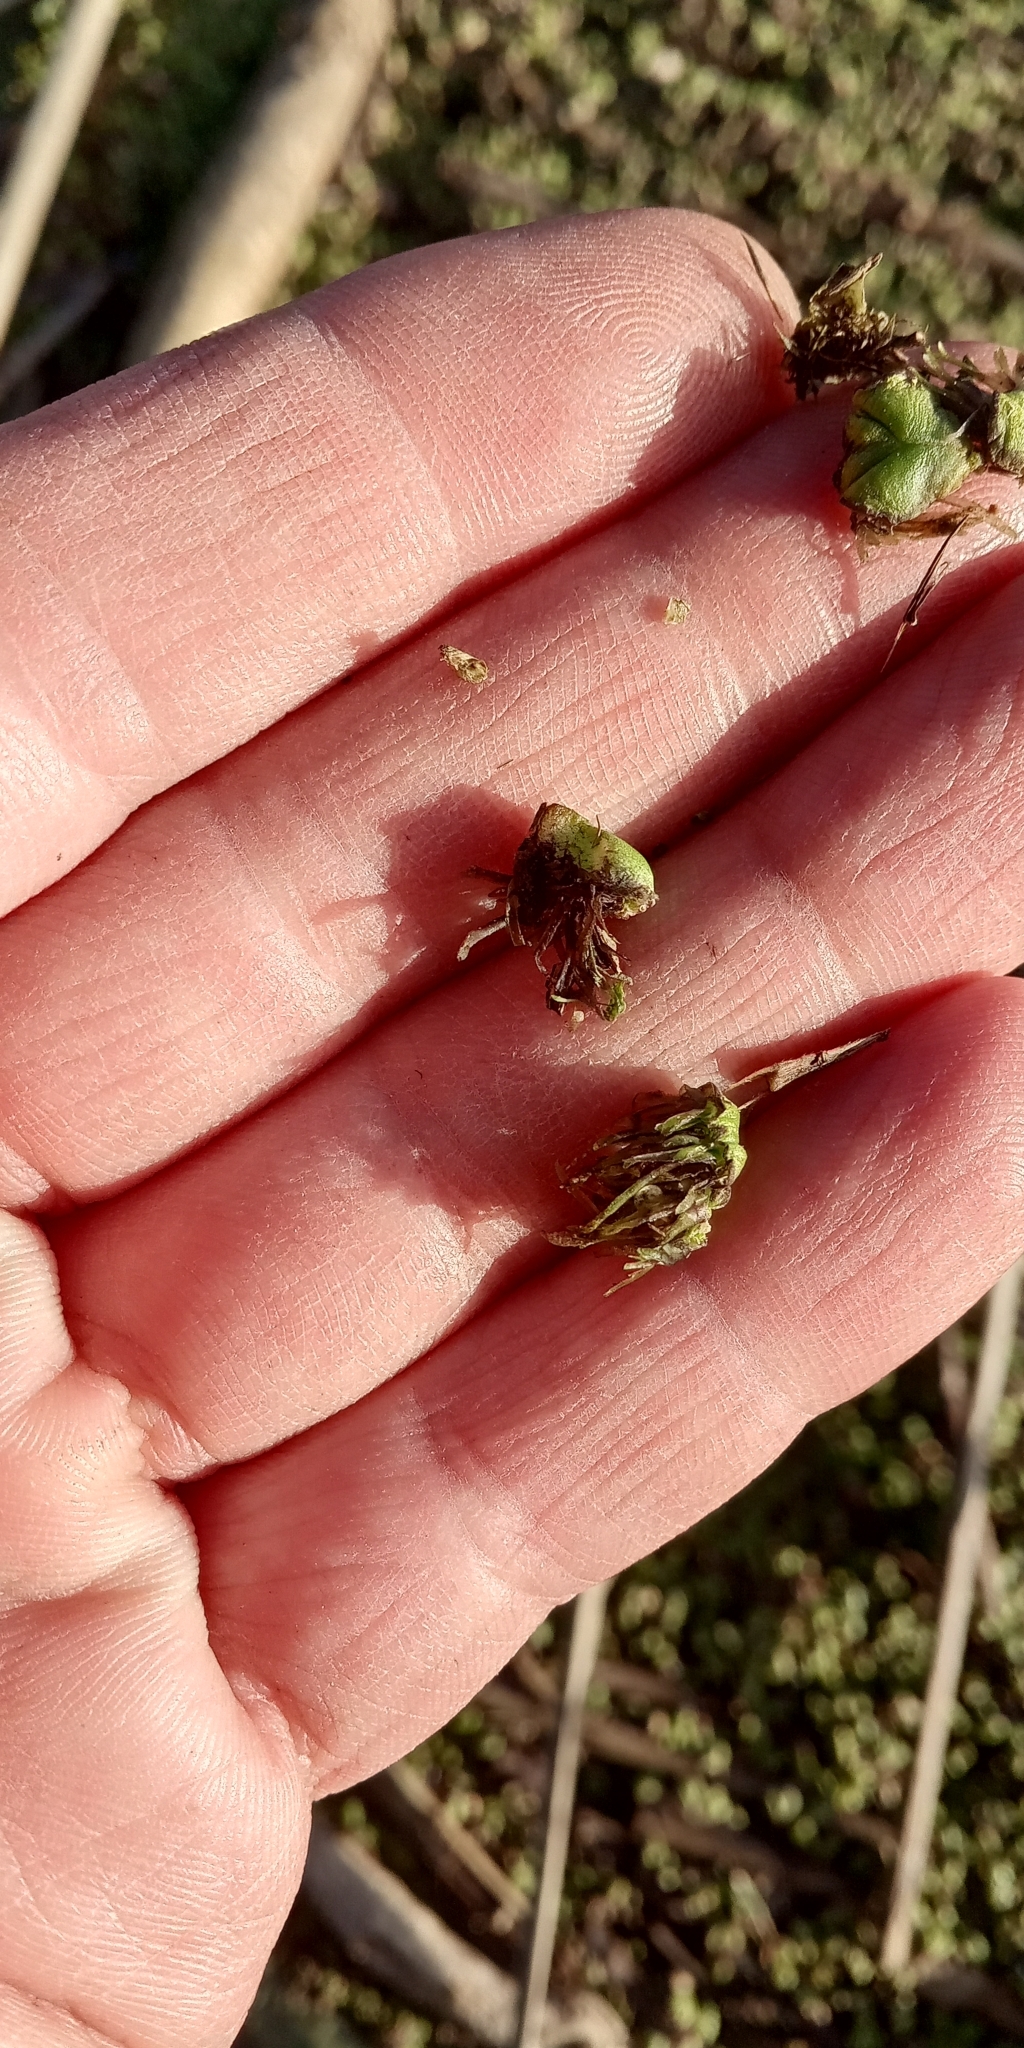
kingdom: Plantae
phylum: Marchantiophyta
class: Marchantiopsida
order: Marchantiales
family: Ricciaceae
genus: Ricciocarpos
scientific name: Ricciocarpos natans
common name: Purple-fringed liverwort
